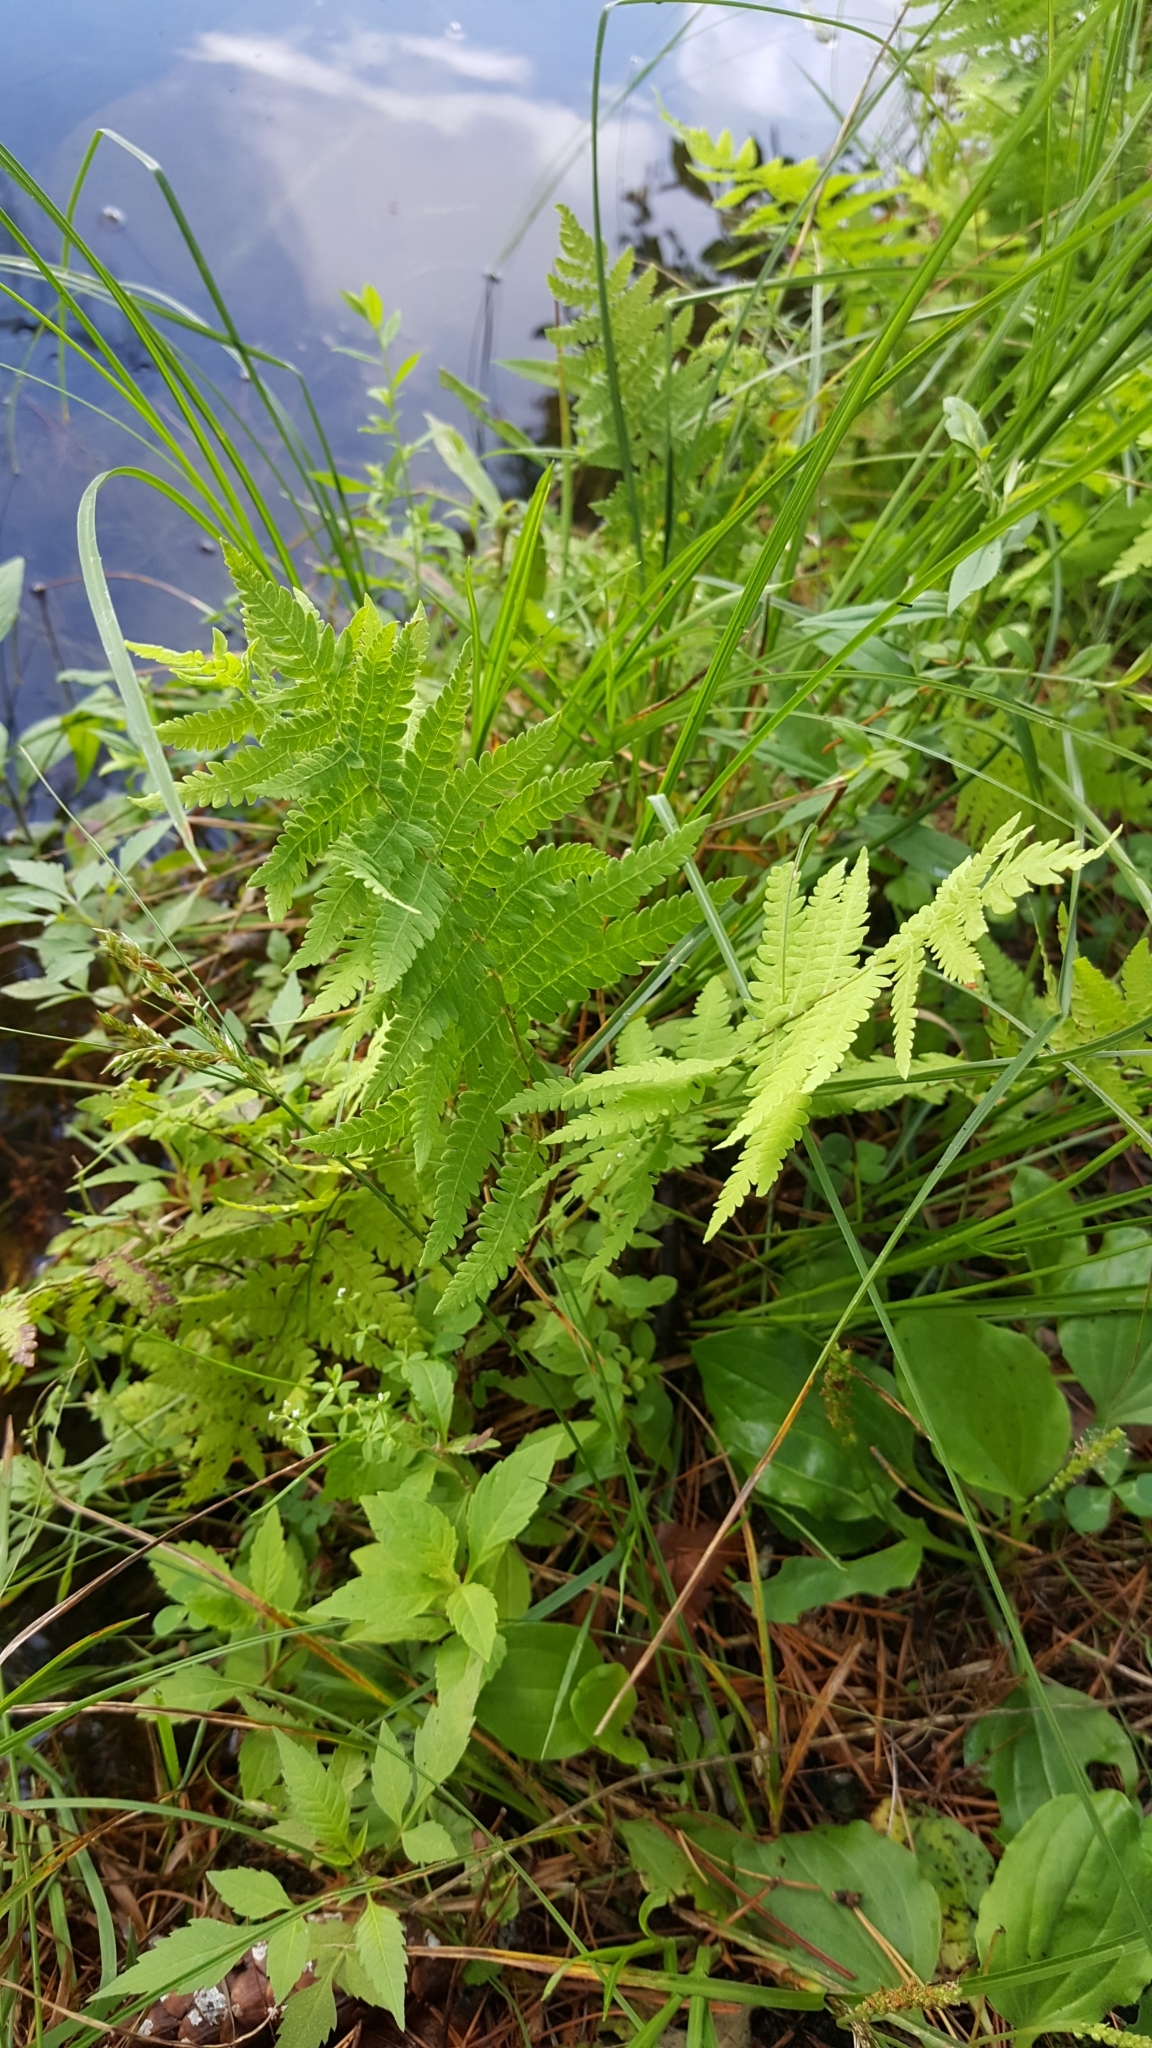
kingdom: Plantae
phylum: Tracheophyta
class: Polypodiopsida
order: Polypodiales
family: Thelypteridaceae
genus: Thelypteris
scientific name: Thelypteris palustris
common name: Marsh fern
